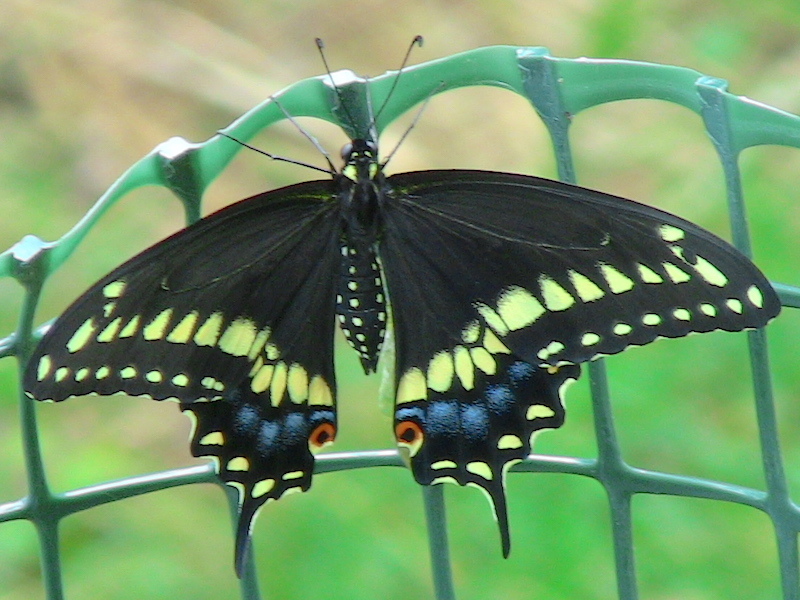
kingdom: Animalia
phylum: Arthropoda
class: Insecta
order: Lepidoptera
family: Papilionidae
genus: Papilio
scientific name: Papilio polyxenes
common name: Black swallowtail
